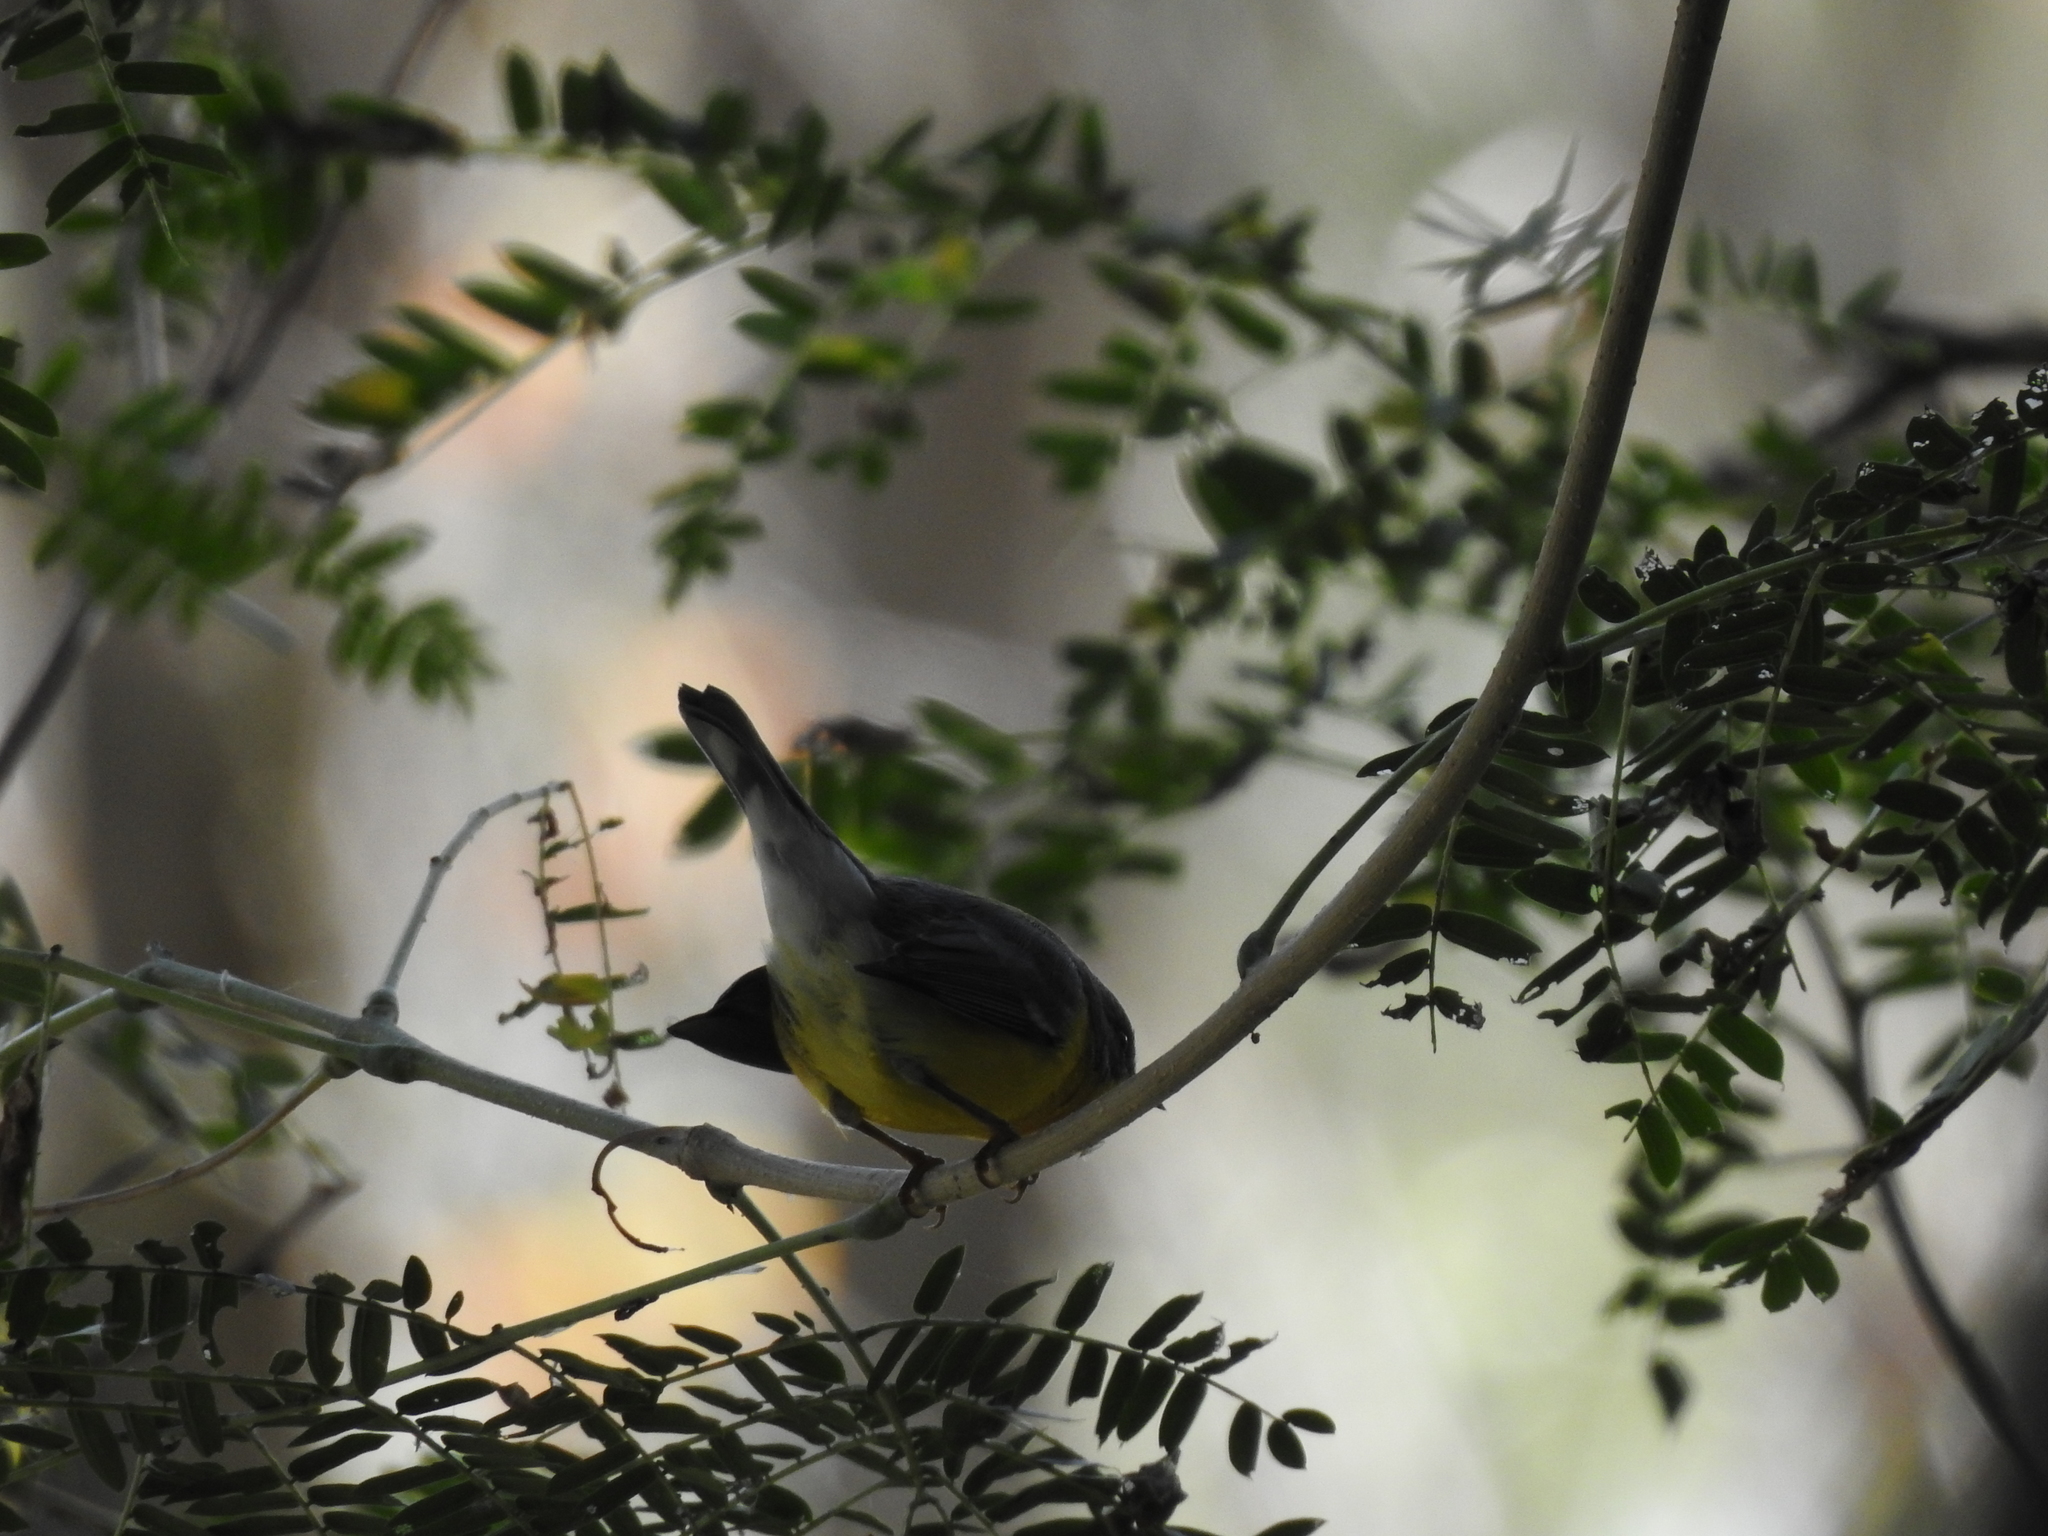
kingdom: Animalia
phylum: Chordata
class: Aves
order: Passeriformes
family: Parulidae
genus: Setophaga
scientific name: Setophaga pitiayumi
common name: Tropical parula
